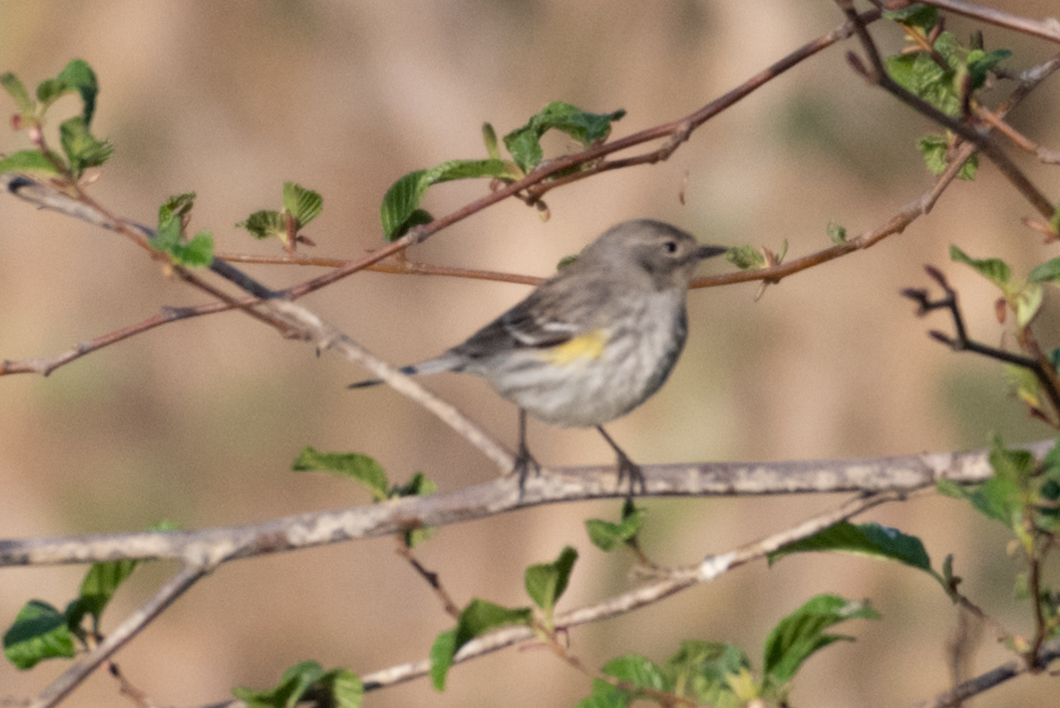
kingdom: Animalia
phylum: Chordata
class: Aves
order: Passeriformes
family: Parulidae
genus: Setophaga
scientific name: Setophaga coronata
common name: Myrtle warbler
